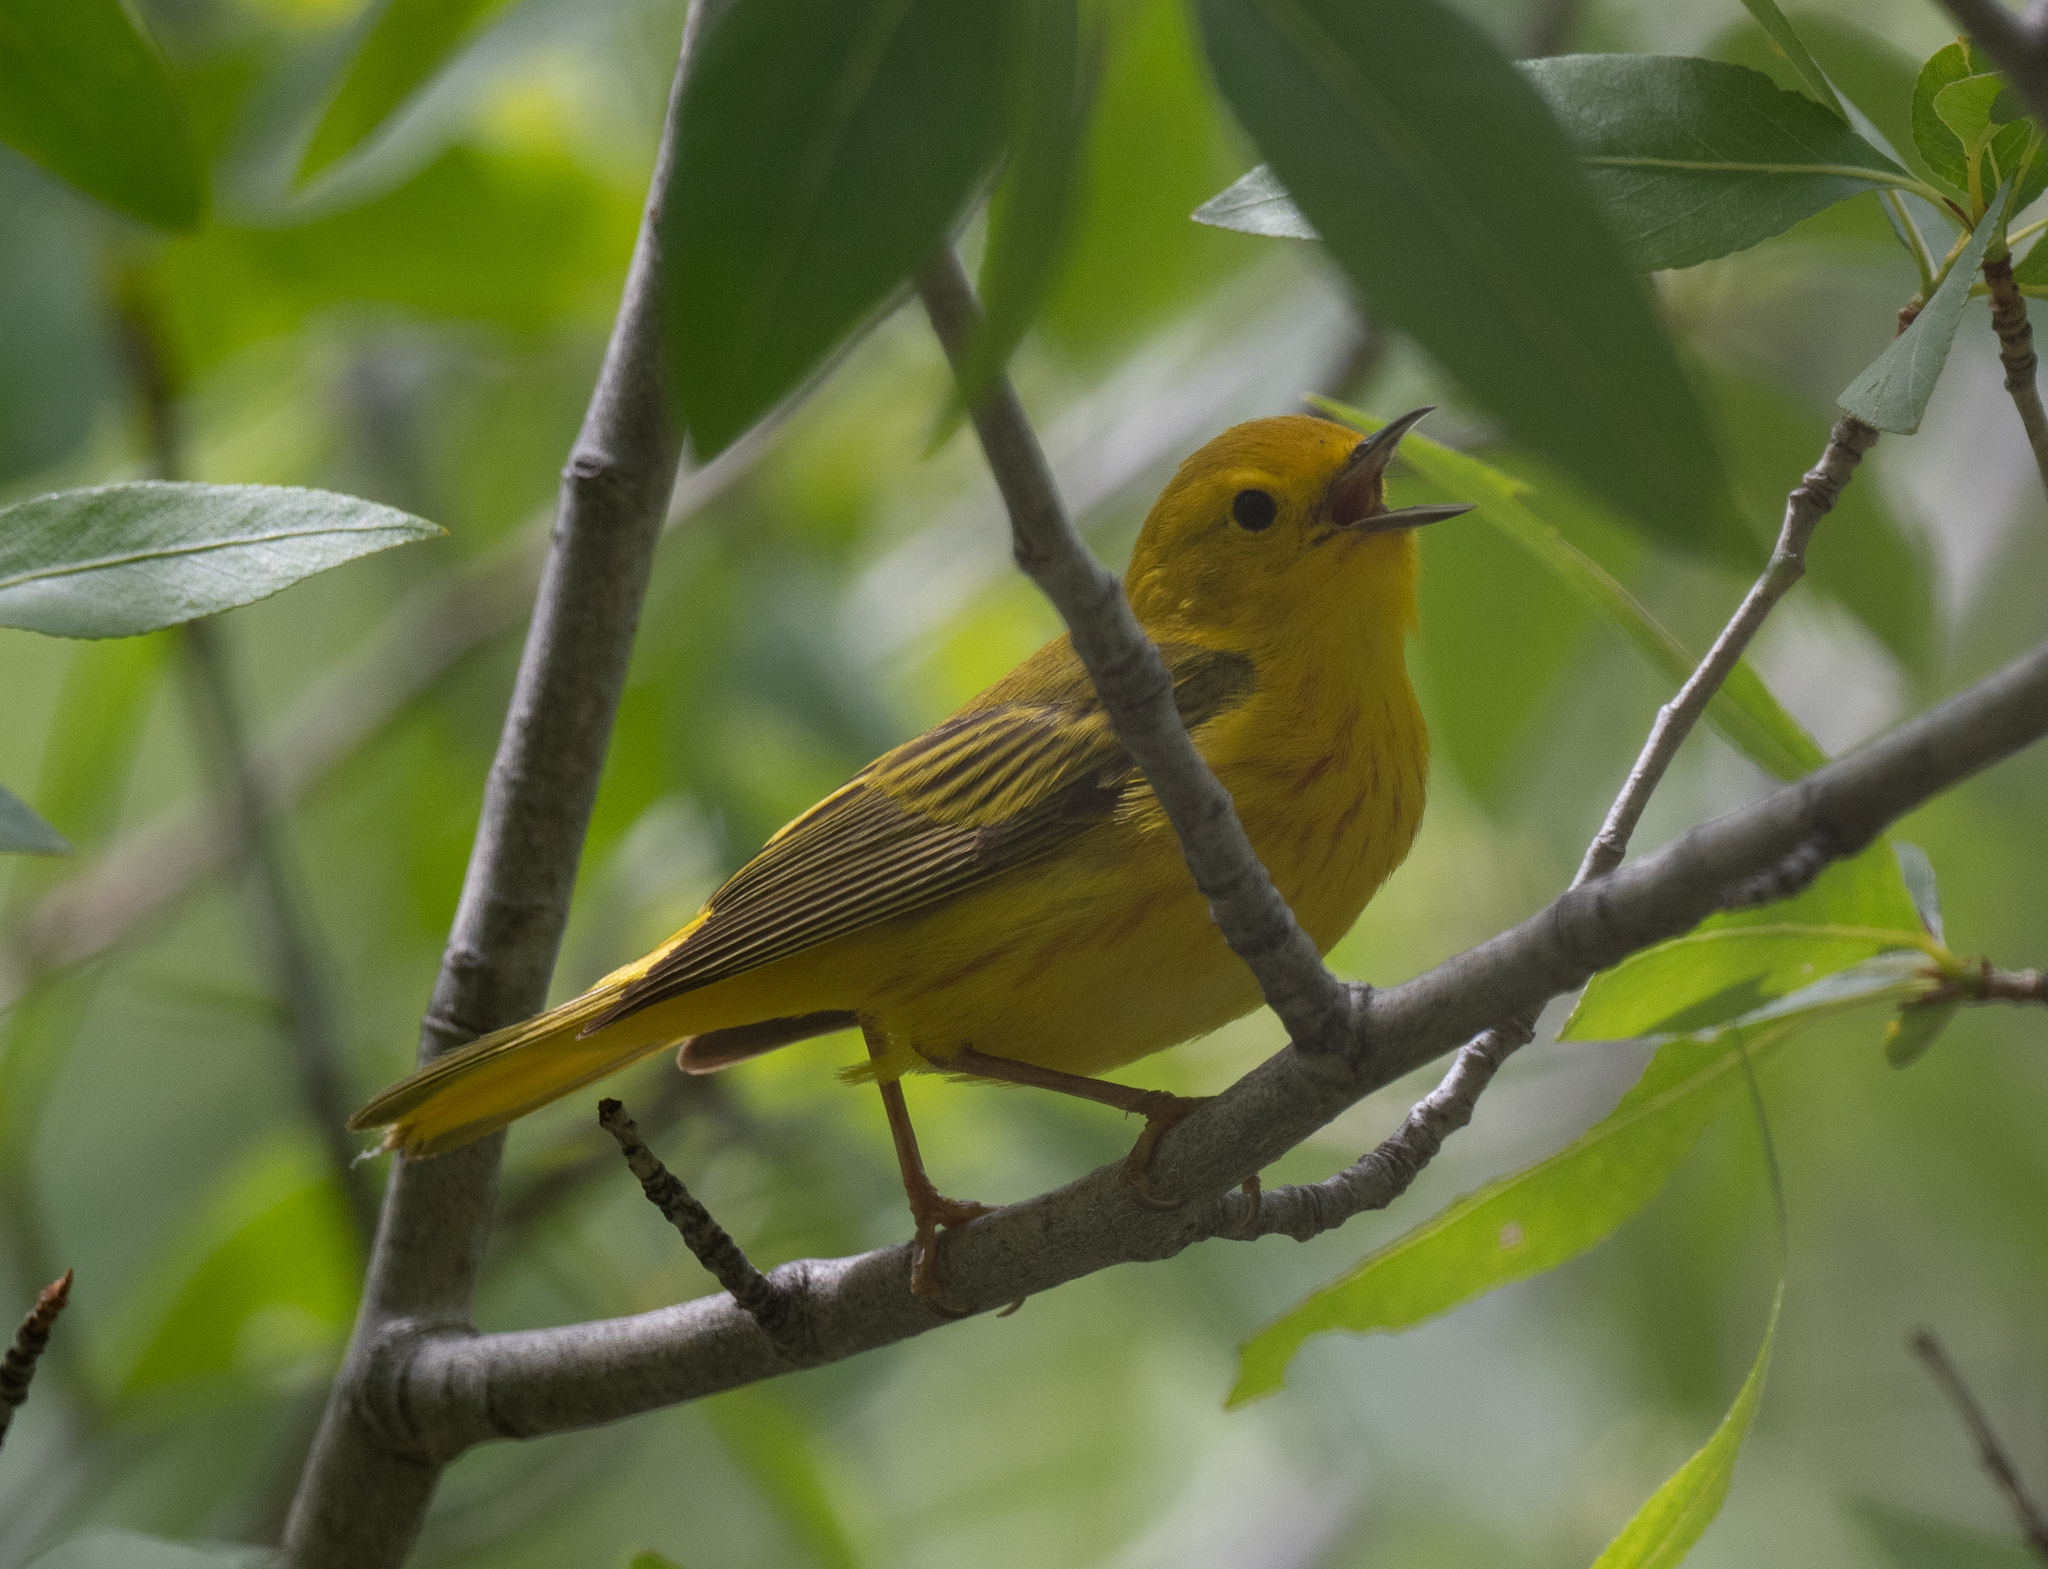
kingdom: Animalia
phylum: Chordata
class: Aves
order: Passeriformes
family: Parulidae
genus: Setophaga
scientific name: Setophaga petechia
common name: Yellow warbler
